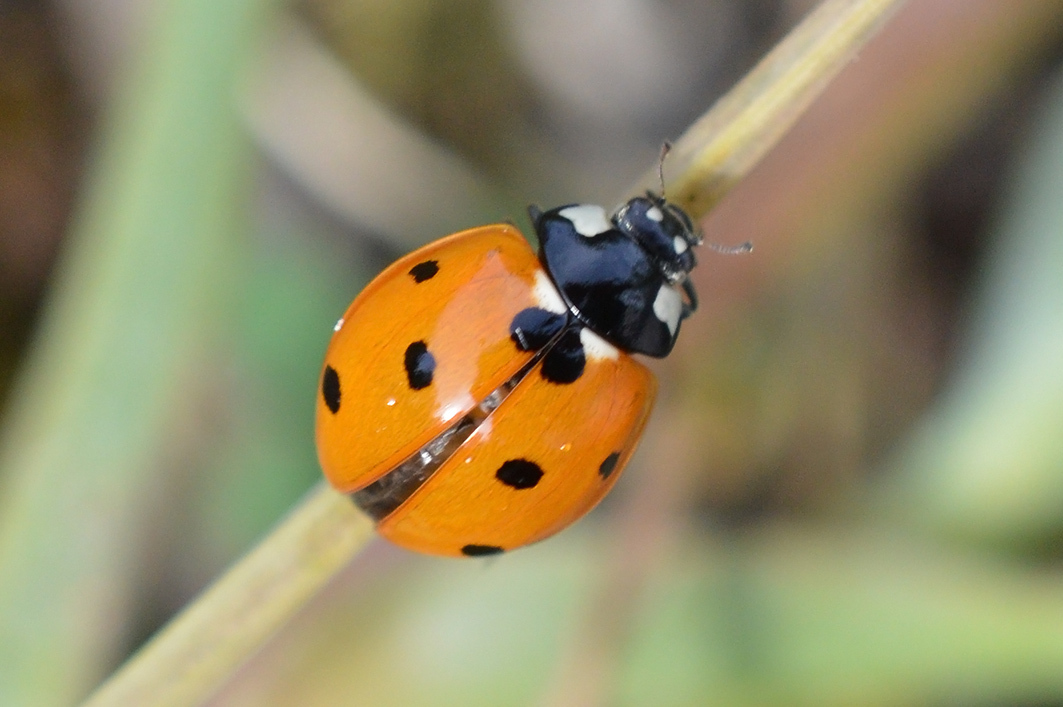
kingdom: Animalia
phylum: Arthropoda
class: Insecta
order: Coleoptera
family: Coccinellidae
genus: Coccinella
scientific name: Coccinella septempunctata
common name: Sevenspotted lady beetle
